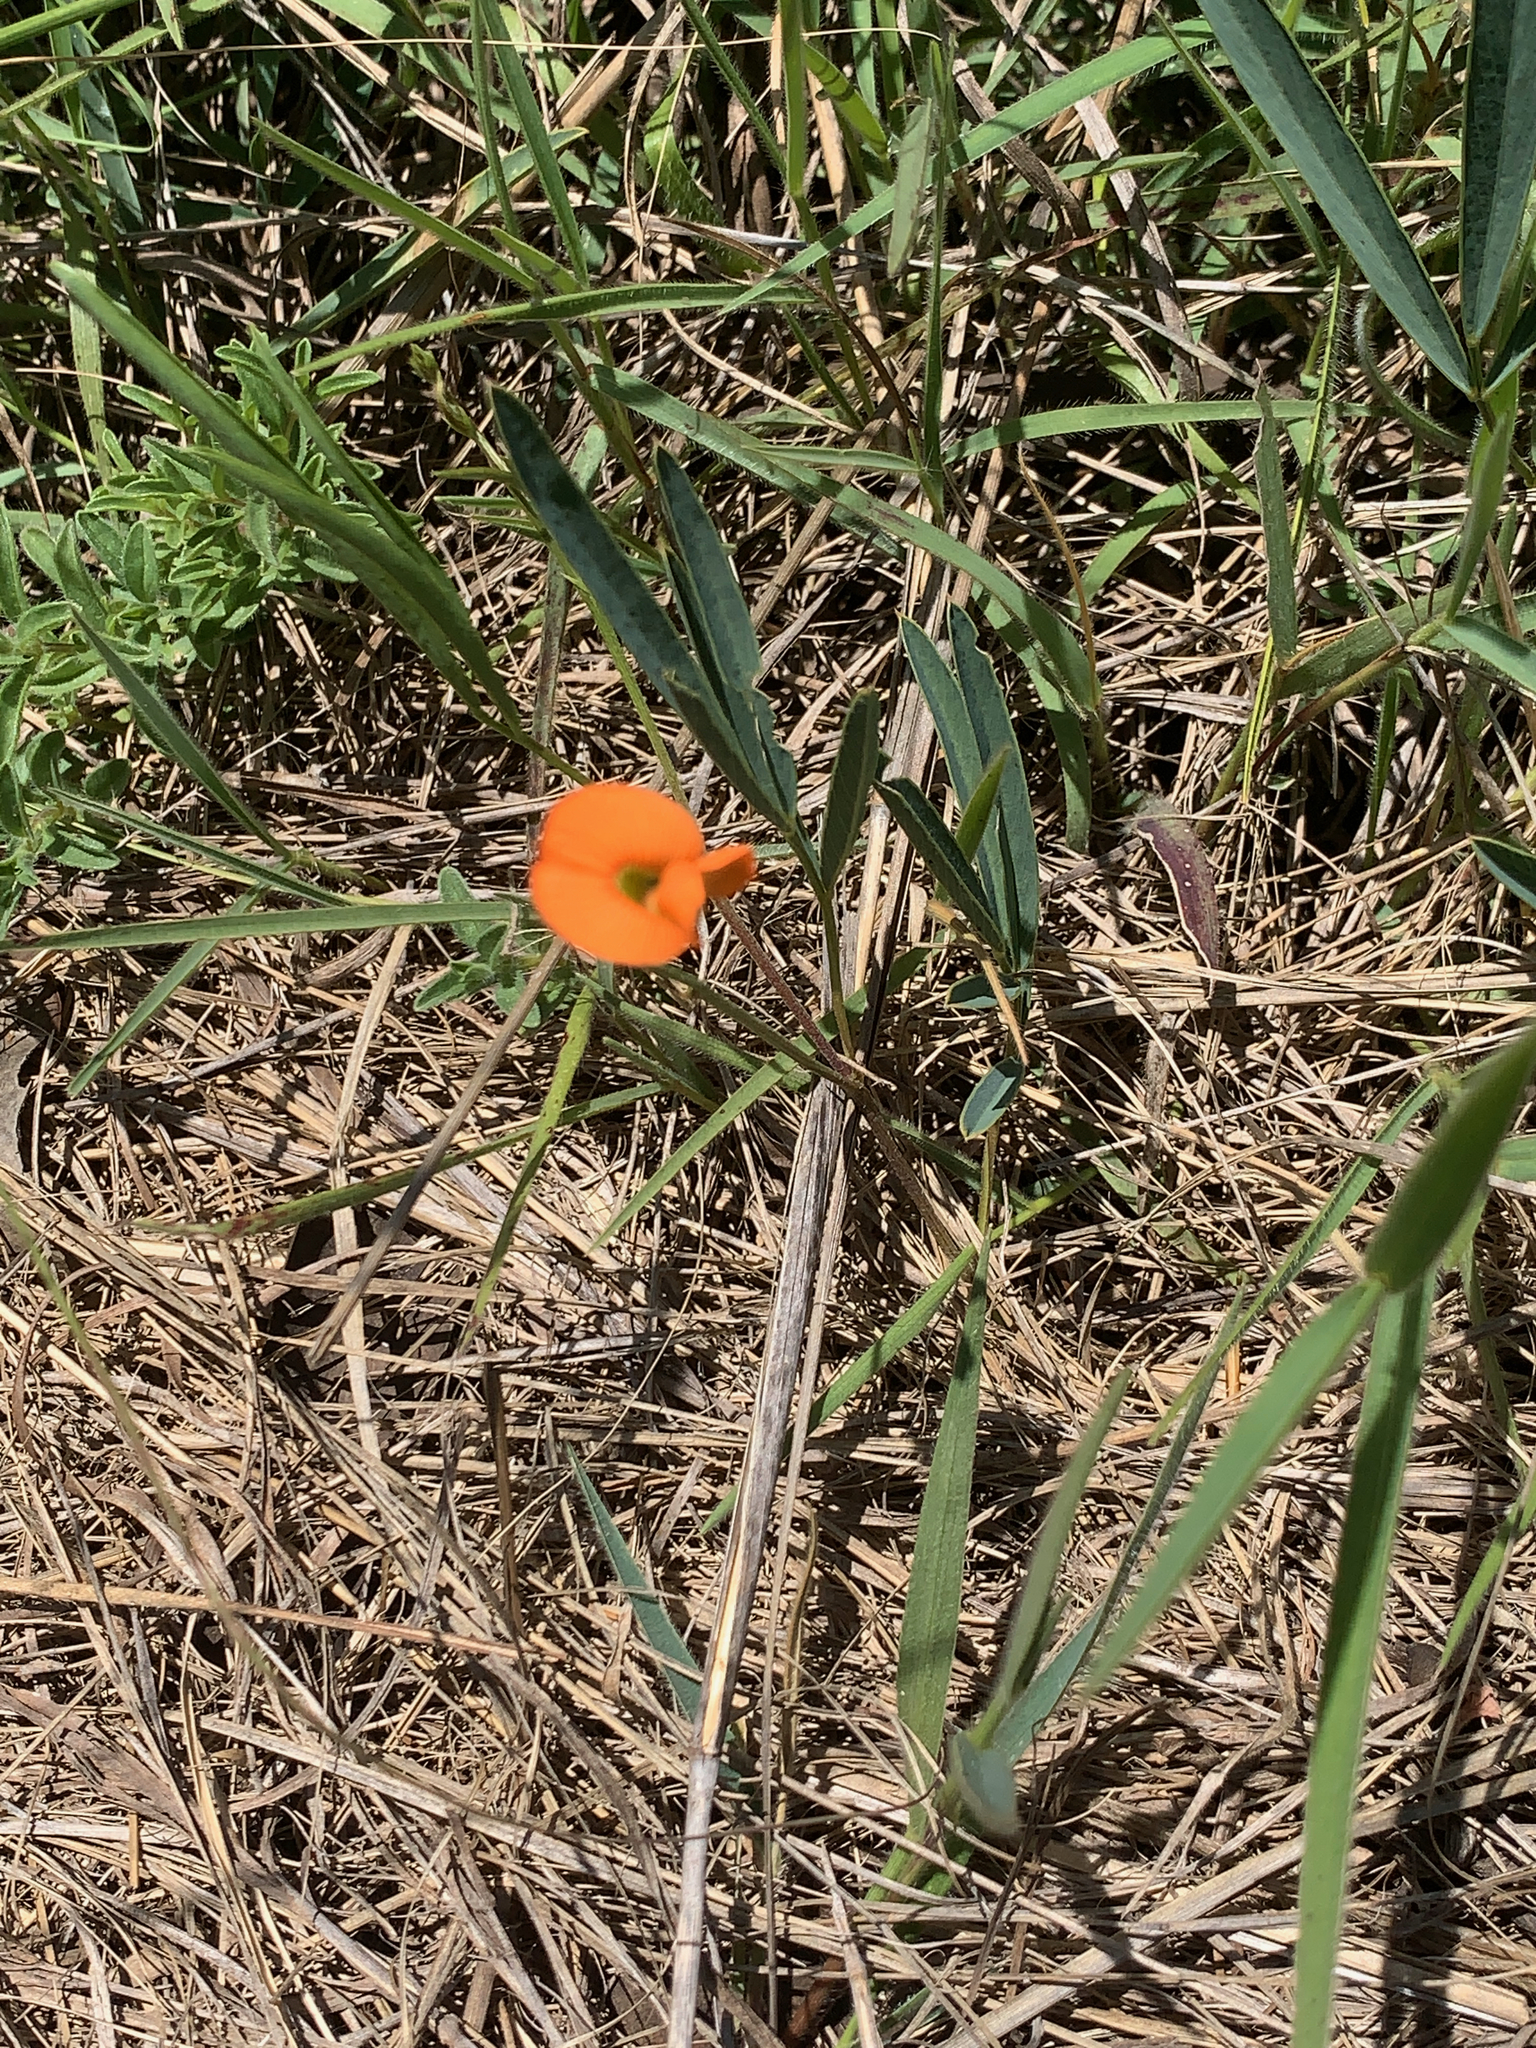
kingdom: Plantae
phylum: Tracheophyta
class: Magnoliopsida
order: Fabales
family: Fabaceae
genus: Tephrosia
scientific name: Tephrosia elongata
